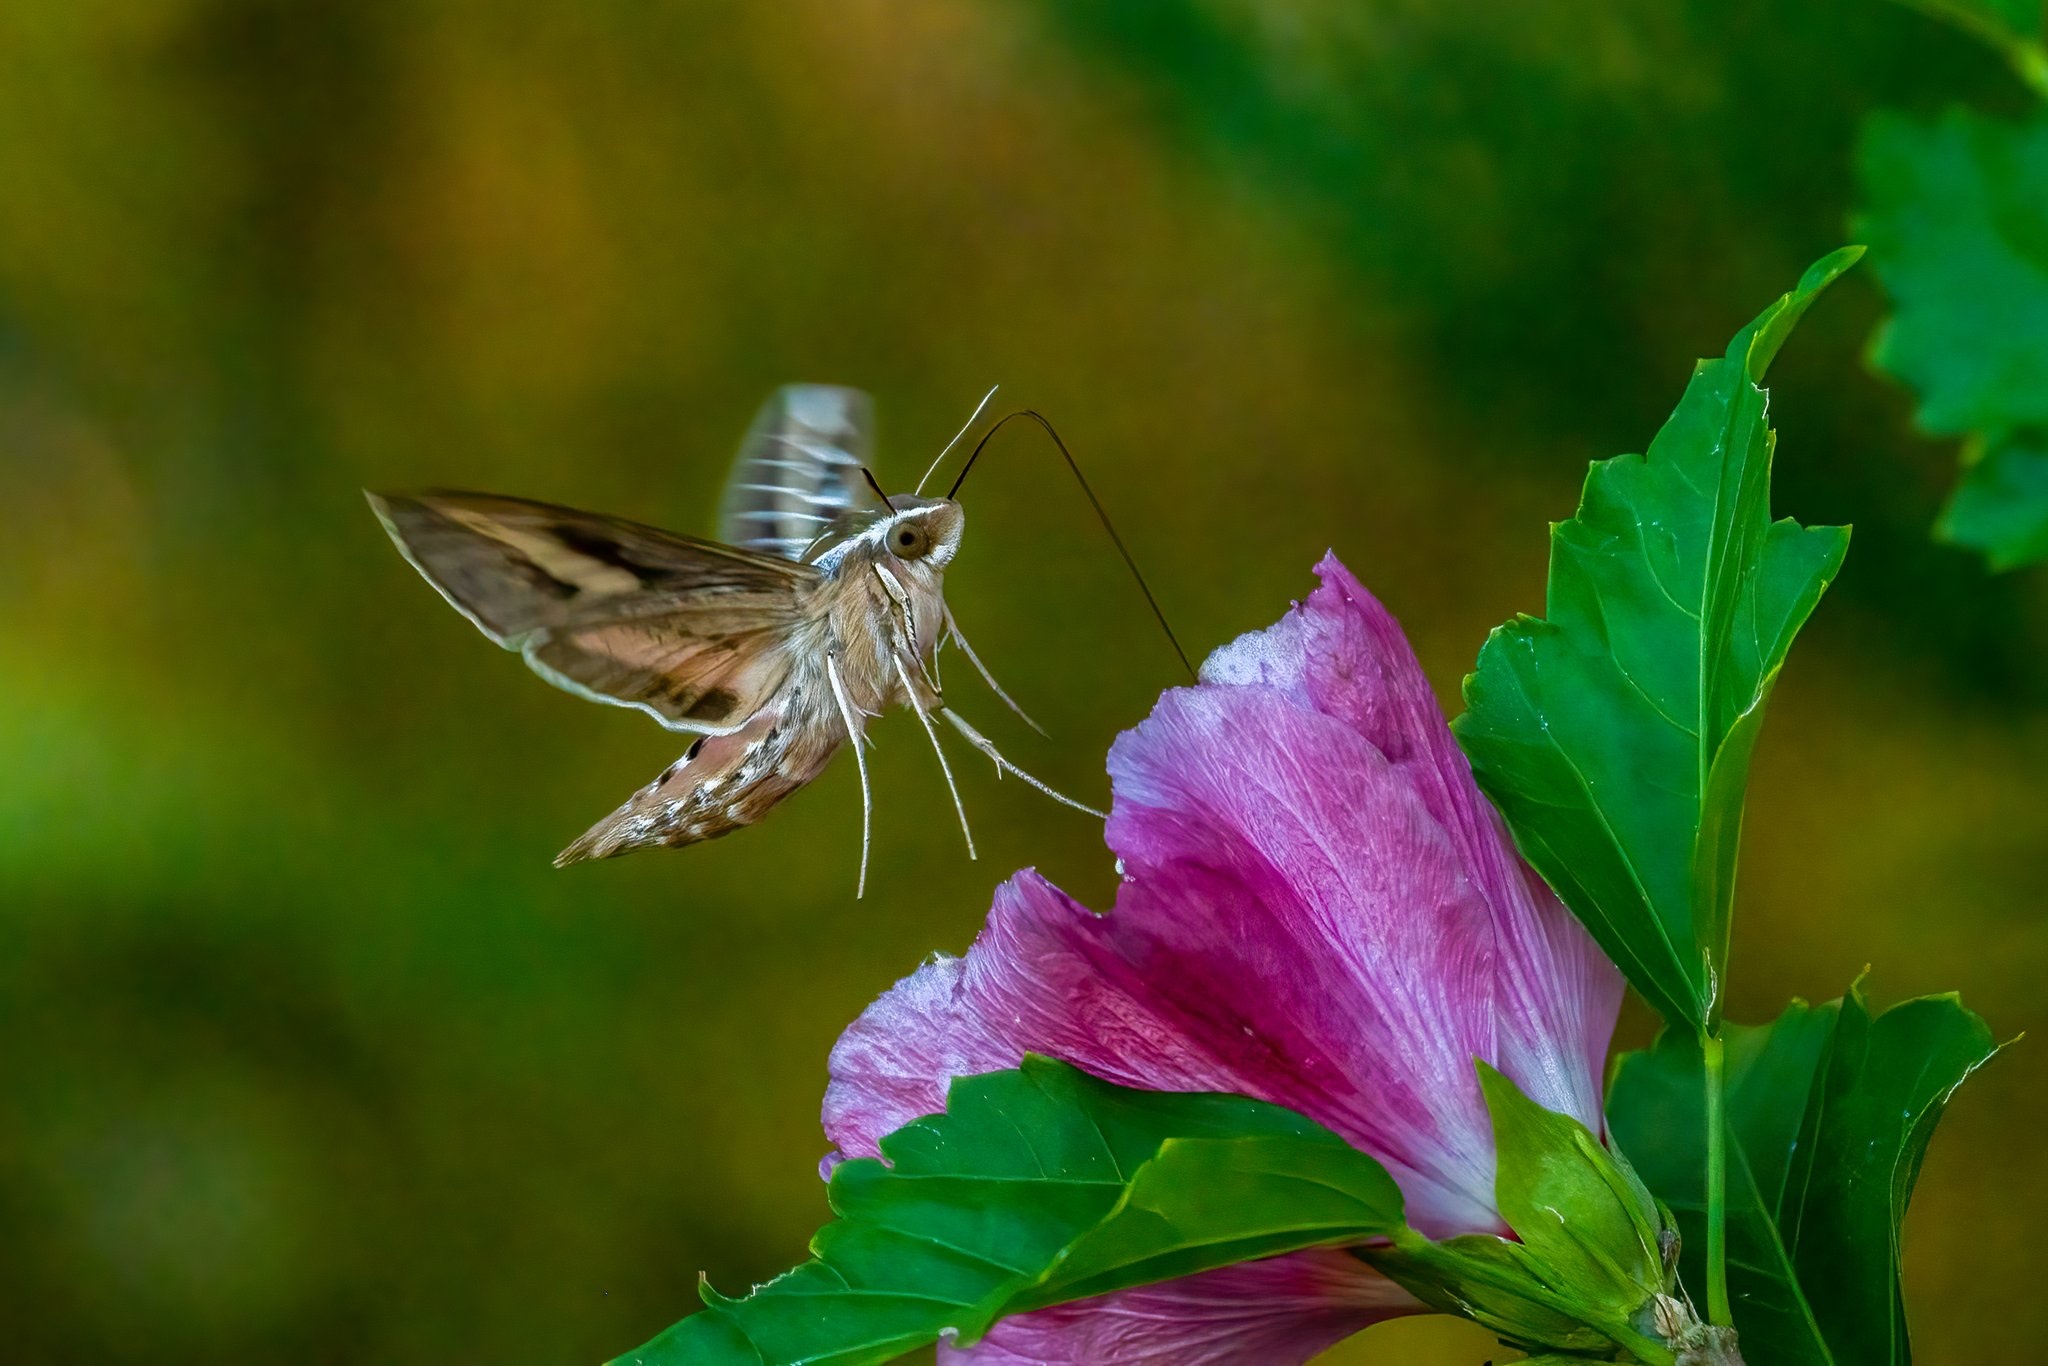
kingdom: Animalia
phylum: Arthropoda
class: Insecta
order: Lepidoptera
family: Sphingidae
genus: Hyles
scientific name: Hyles lineata
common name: White-lined sphinx
